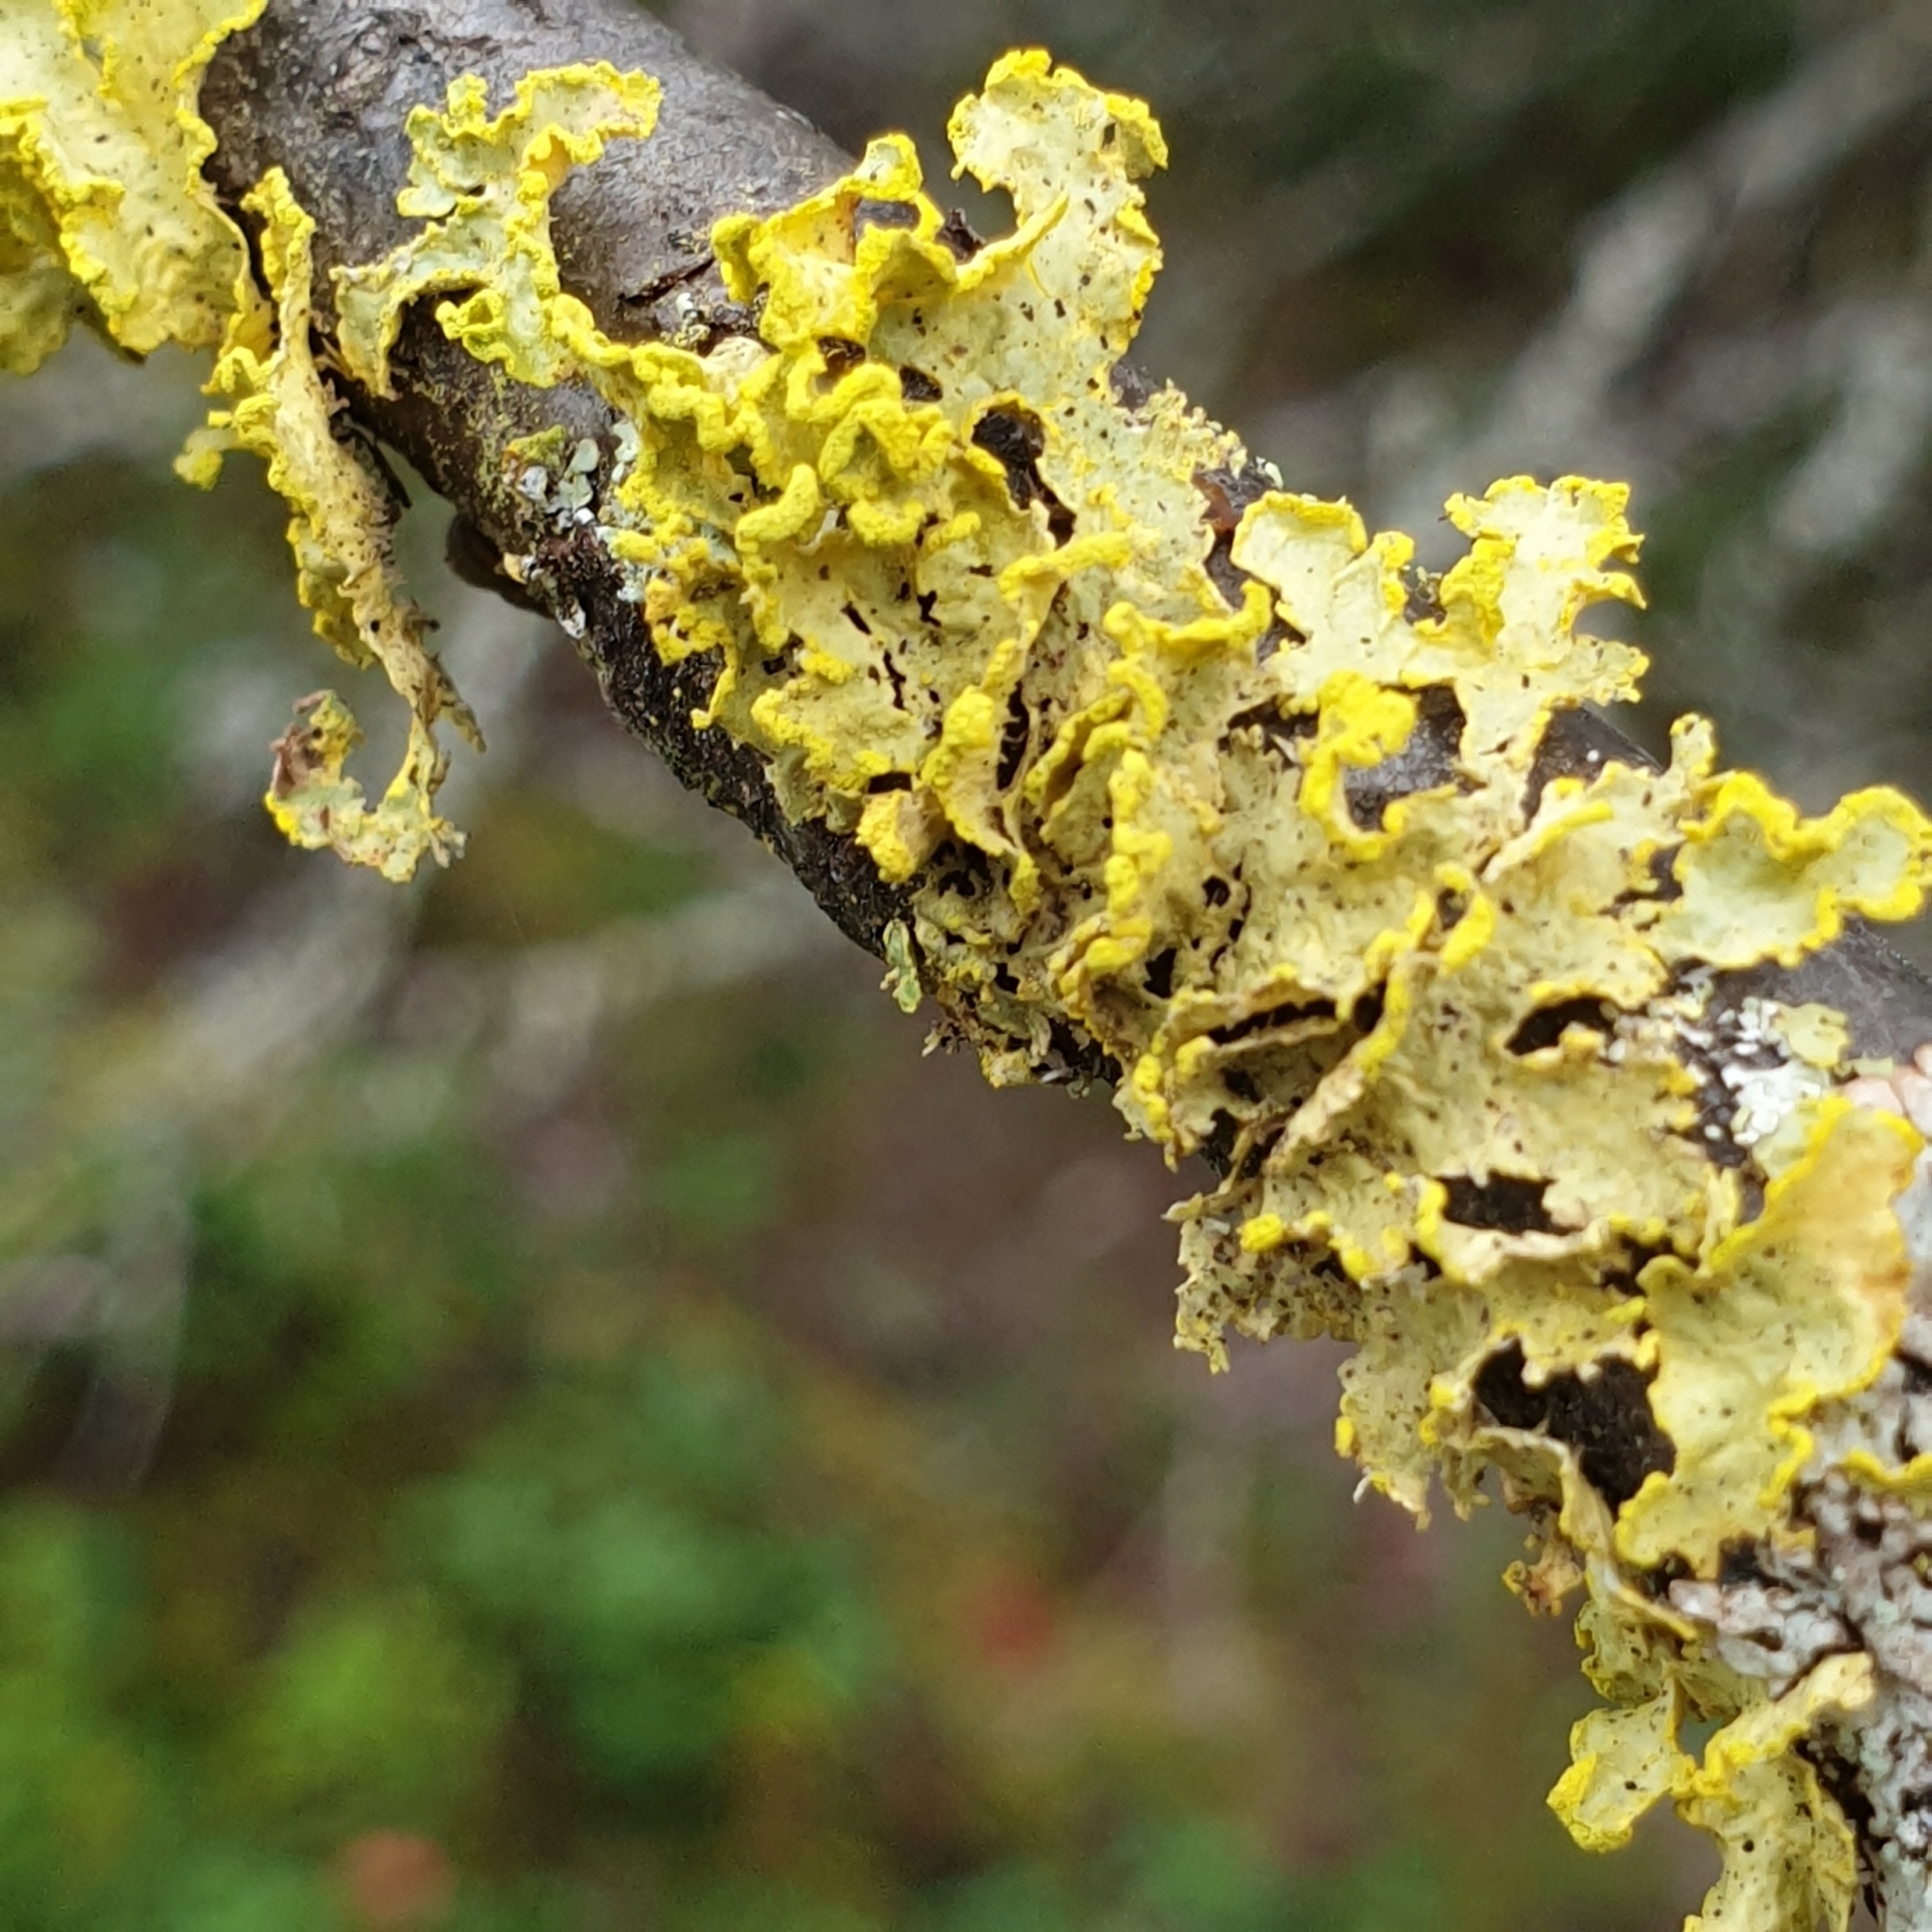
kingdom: Fungi
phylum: Ascomycota
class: Lecanoromycetes
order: Lecanorales
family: Parmeliaceae
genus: Vulpicida
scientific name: Vulpicida pinastri
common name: Powdered sunshine lichen
